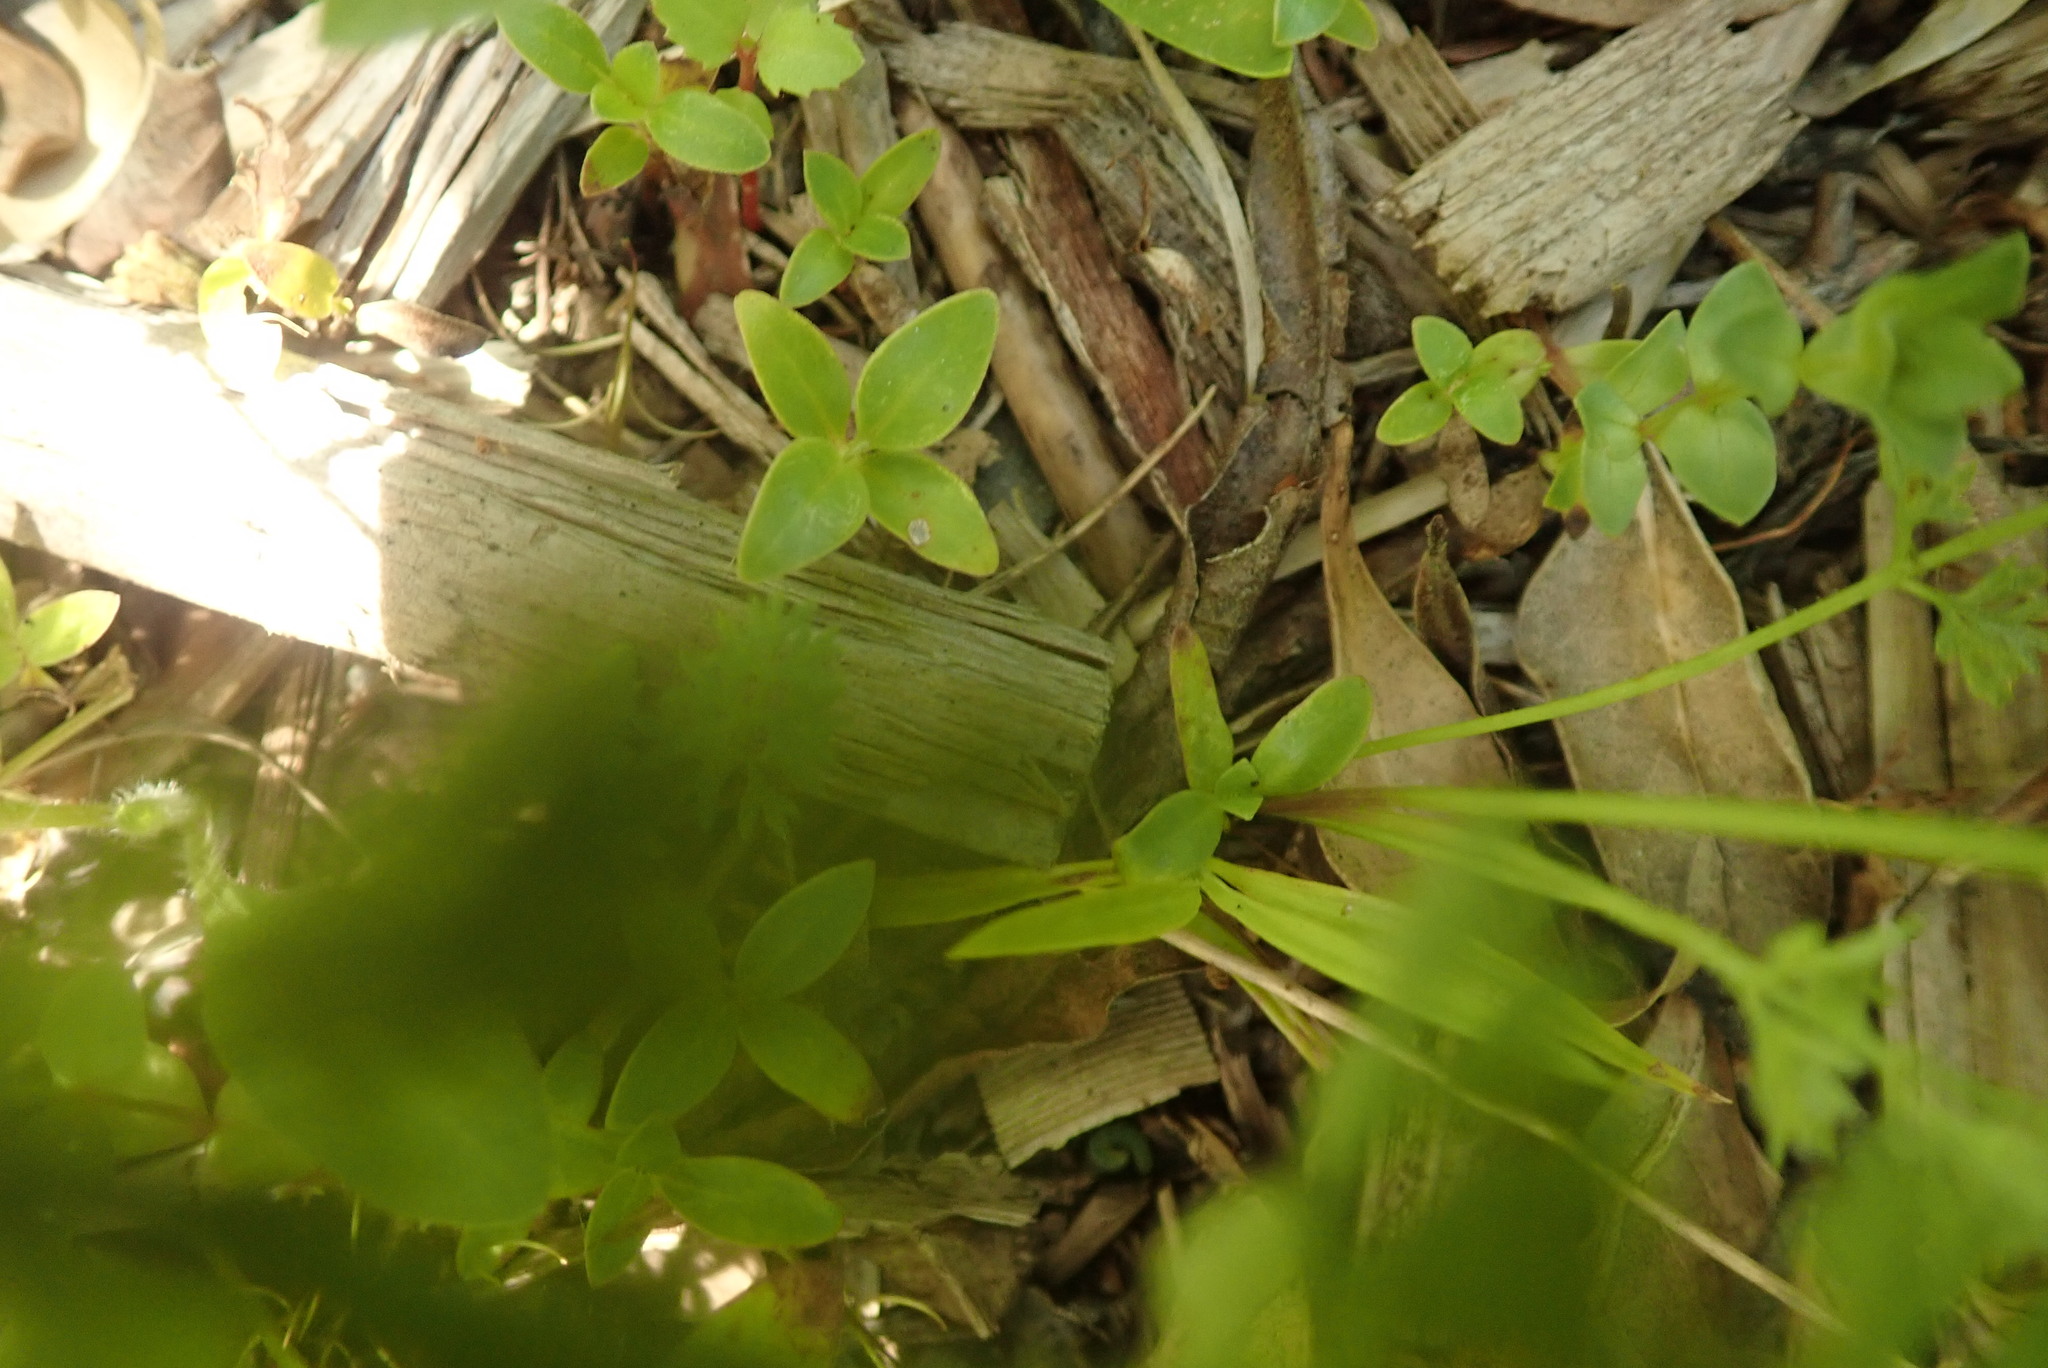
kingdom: Plantae
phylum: Tracheophyta
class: Magnoliopsida
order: Gentianales
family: Rubiaceae
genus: Coprosma
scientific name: Coprosma robusta
